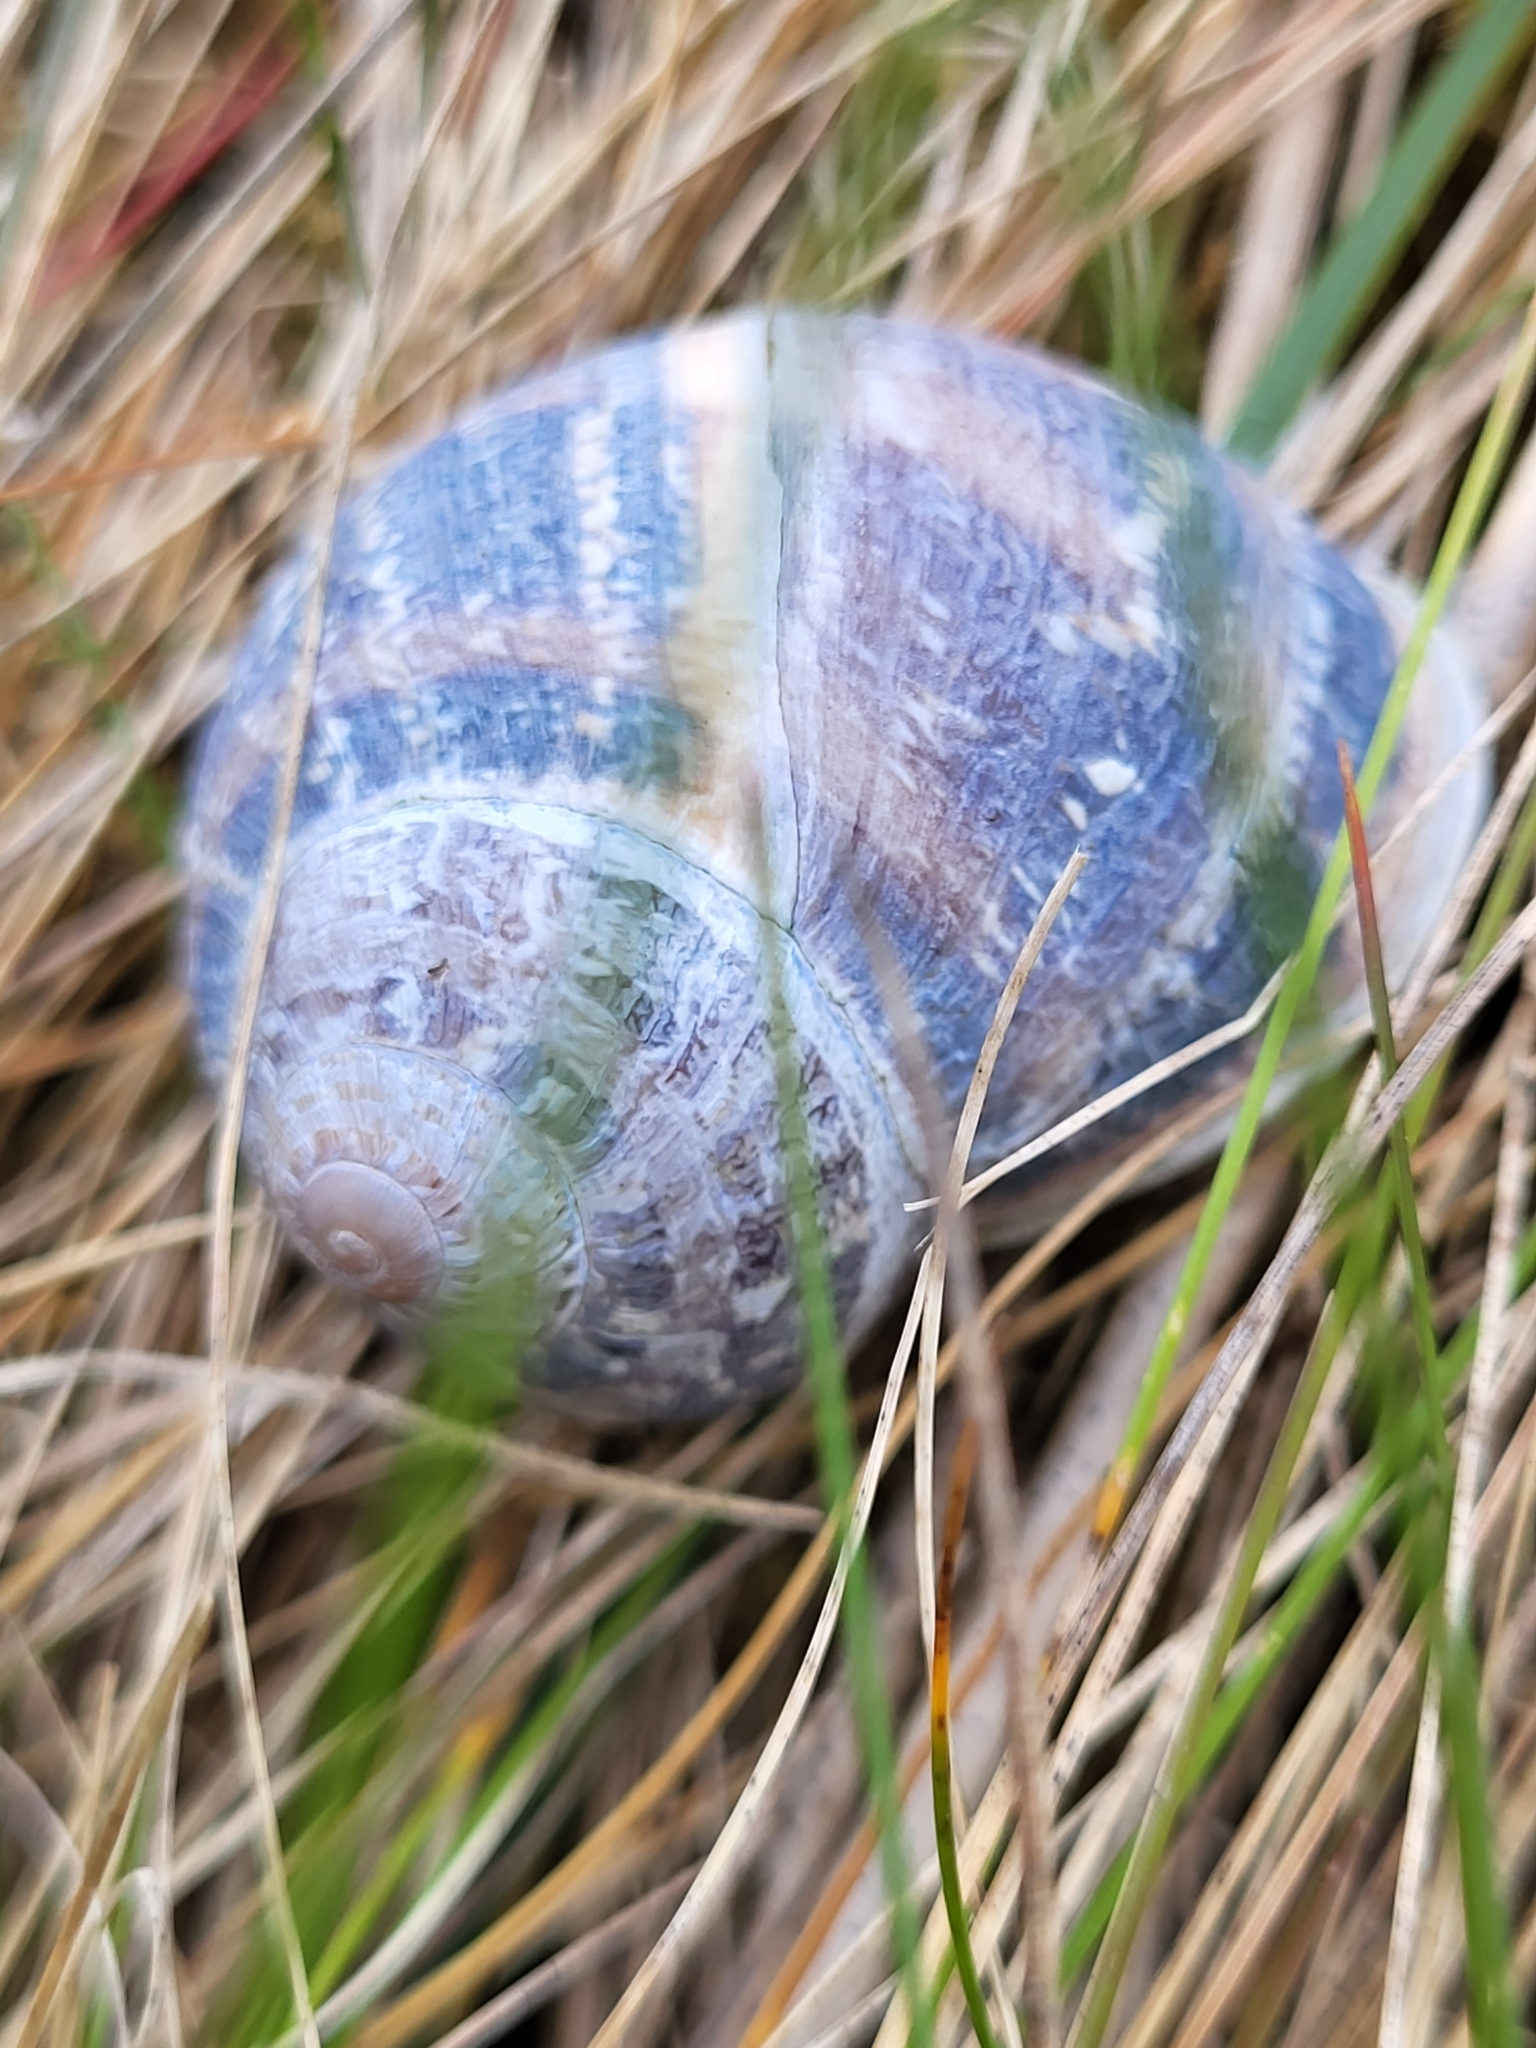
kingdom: Animalia
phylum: Mollusca
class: Gastropoda
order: Stylommatophora
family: Helicidae
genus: Cornu
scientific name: Cornu aspersum
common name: Brown garden snail
